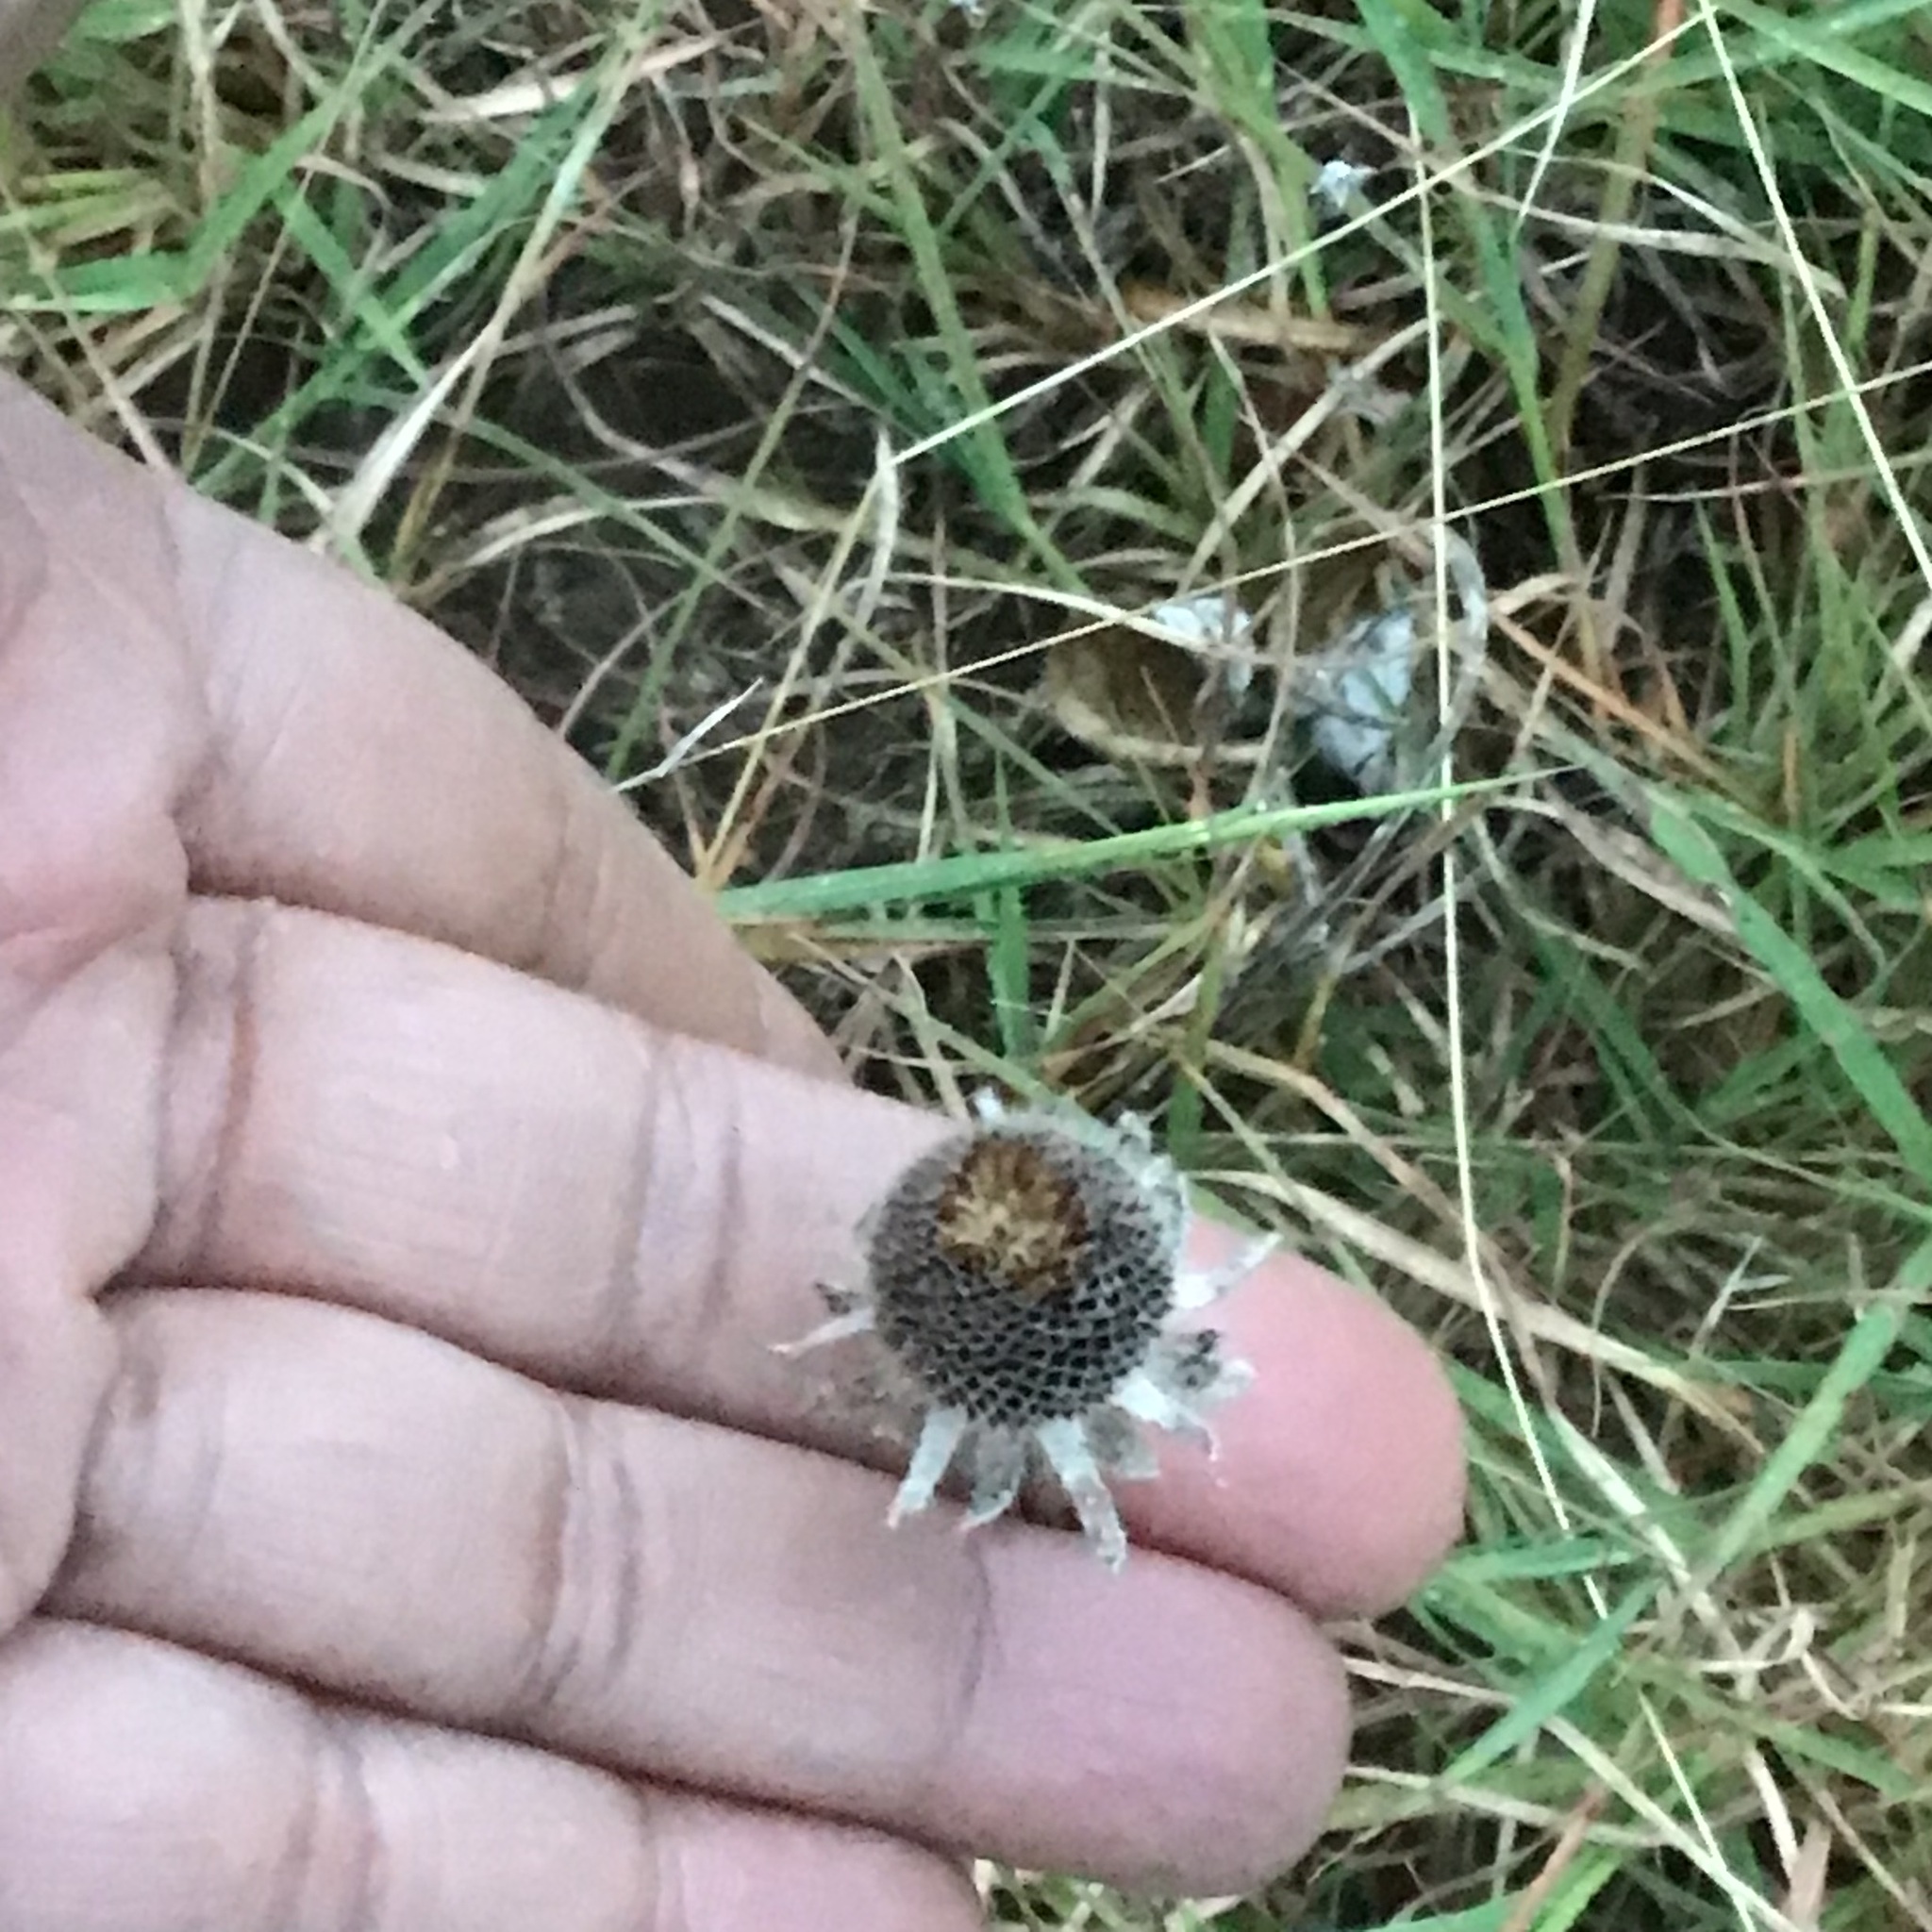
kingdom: Plantae
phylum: Tracheophyta
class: Magnoliopsida
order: Asterales
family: Asteraceae
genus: Rudbeckia
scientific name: Rudbeckia hirta
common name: Black-eyed-susan
